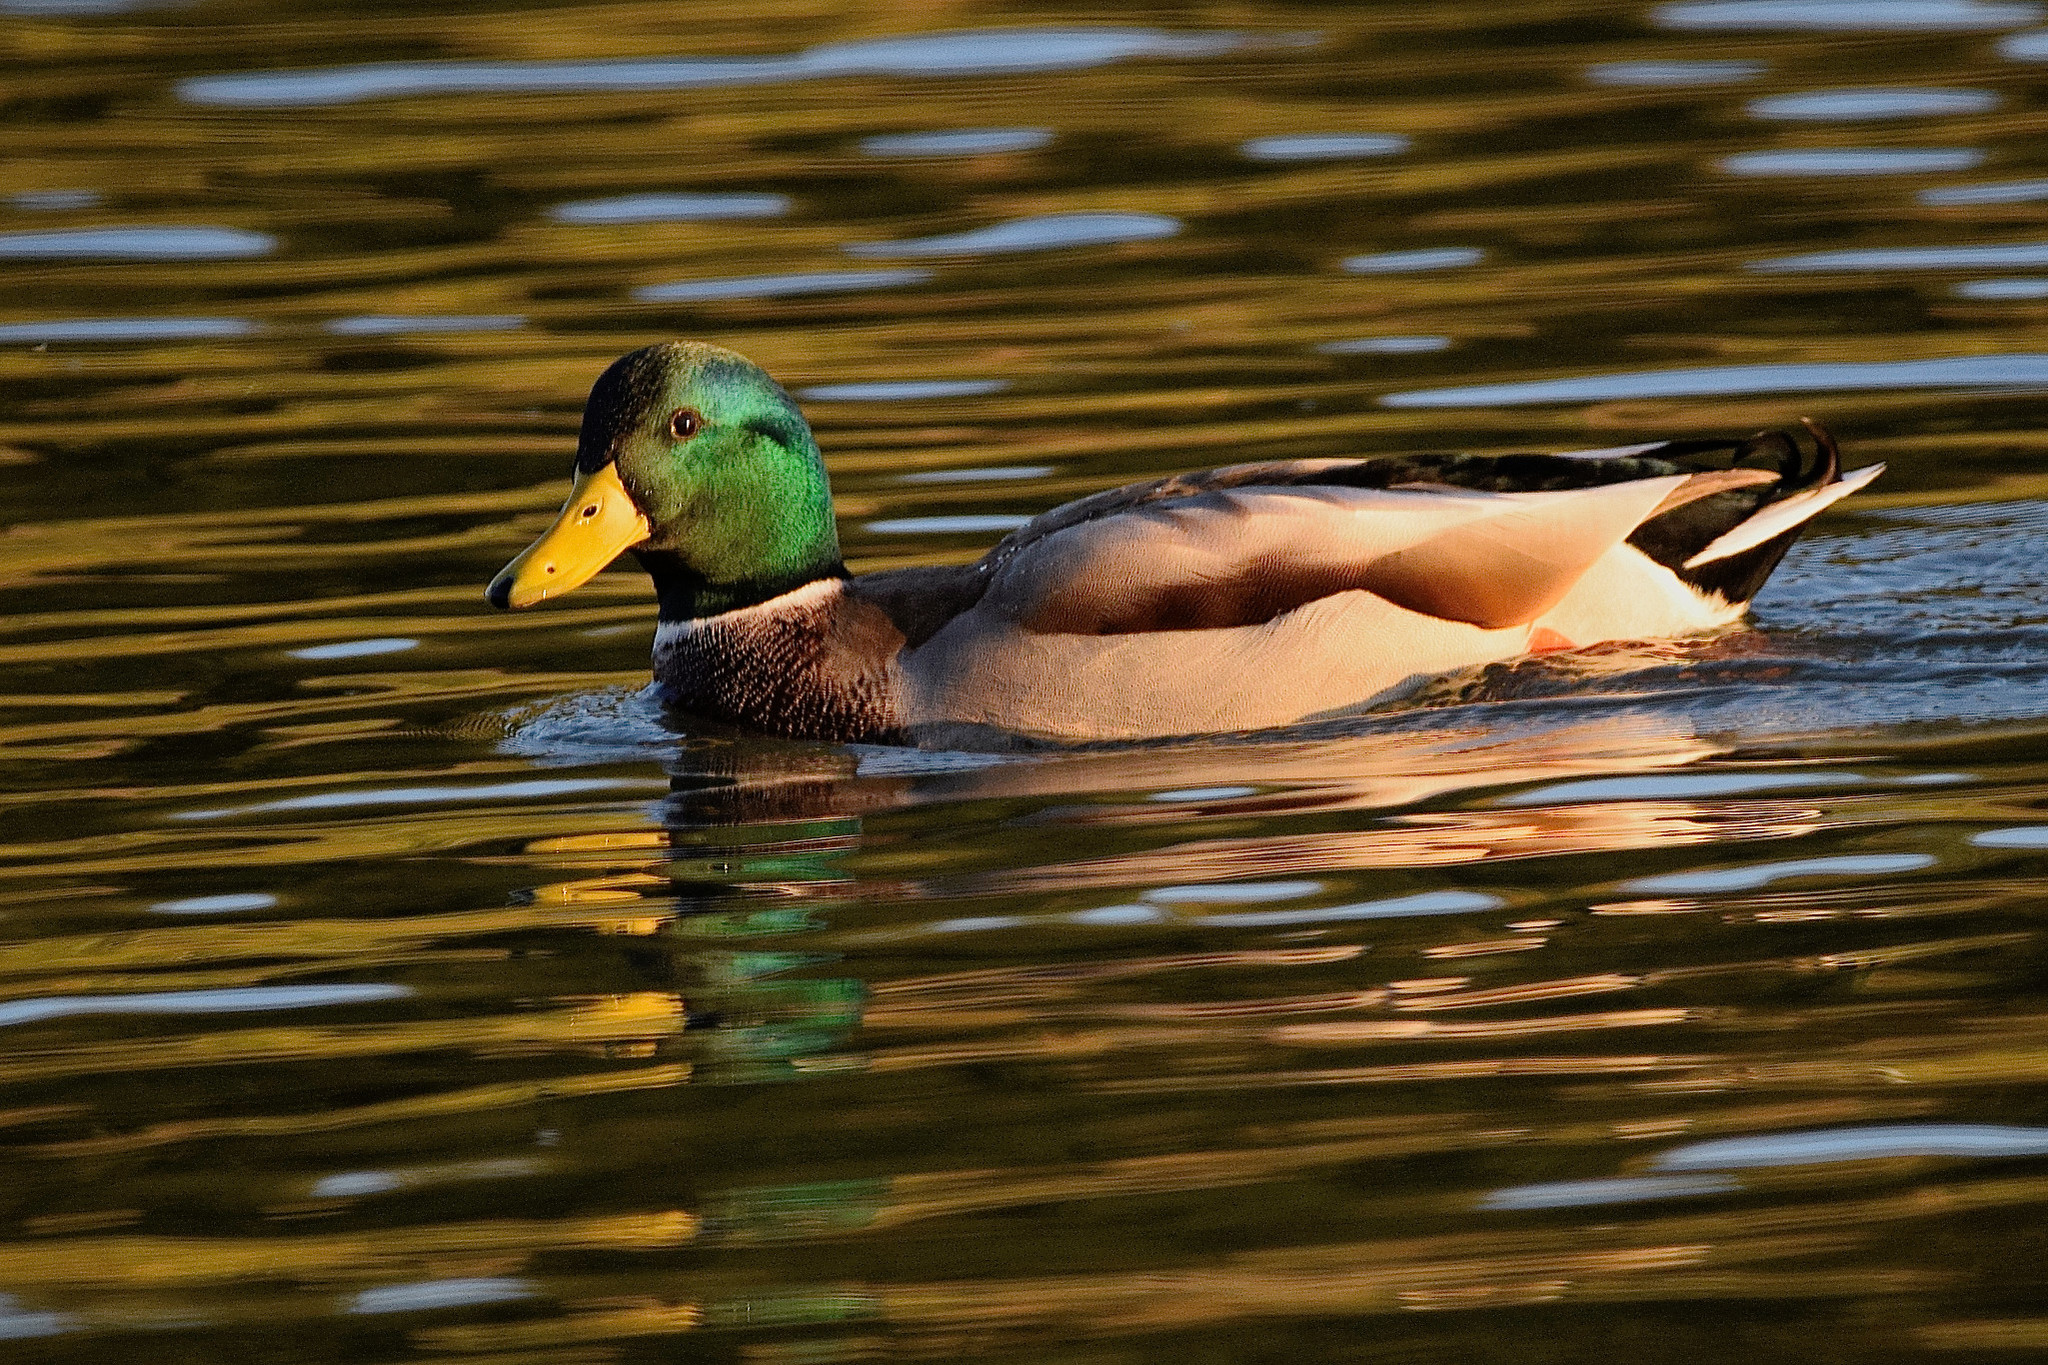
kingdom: Animalia
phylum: Chordata
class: Aves
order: Anseriformes
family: Anatidae
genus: Anas
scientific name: Anas platyrhynchos
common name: Mallard
